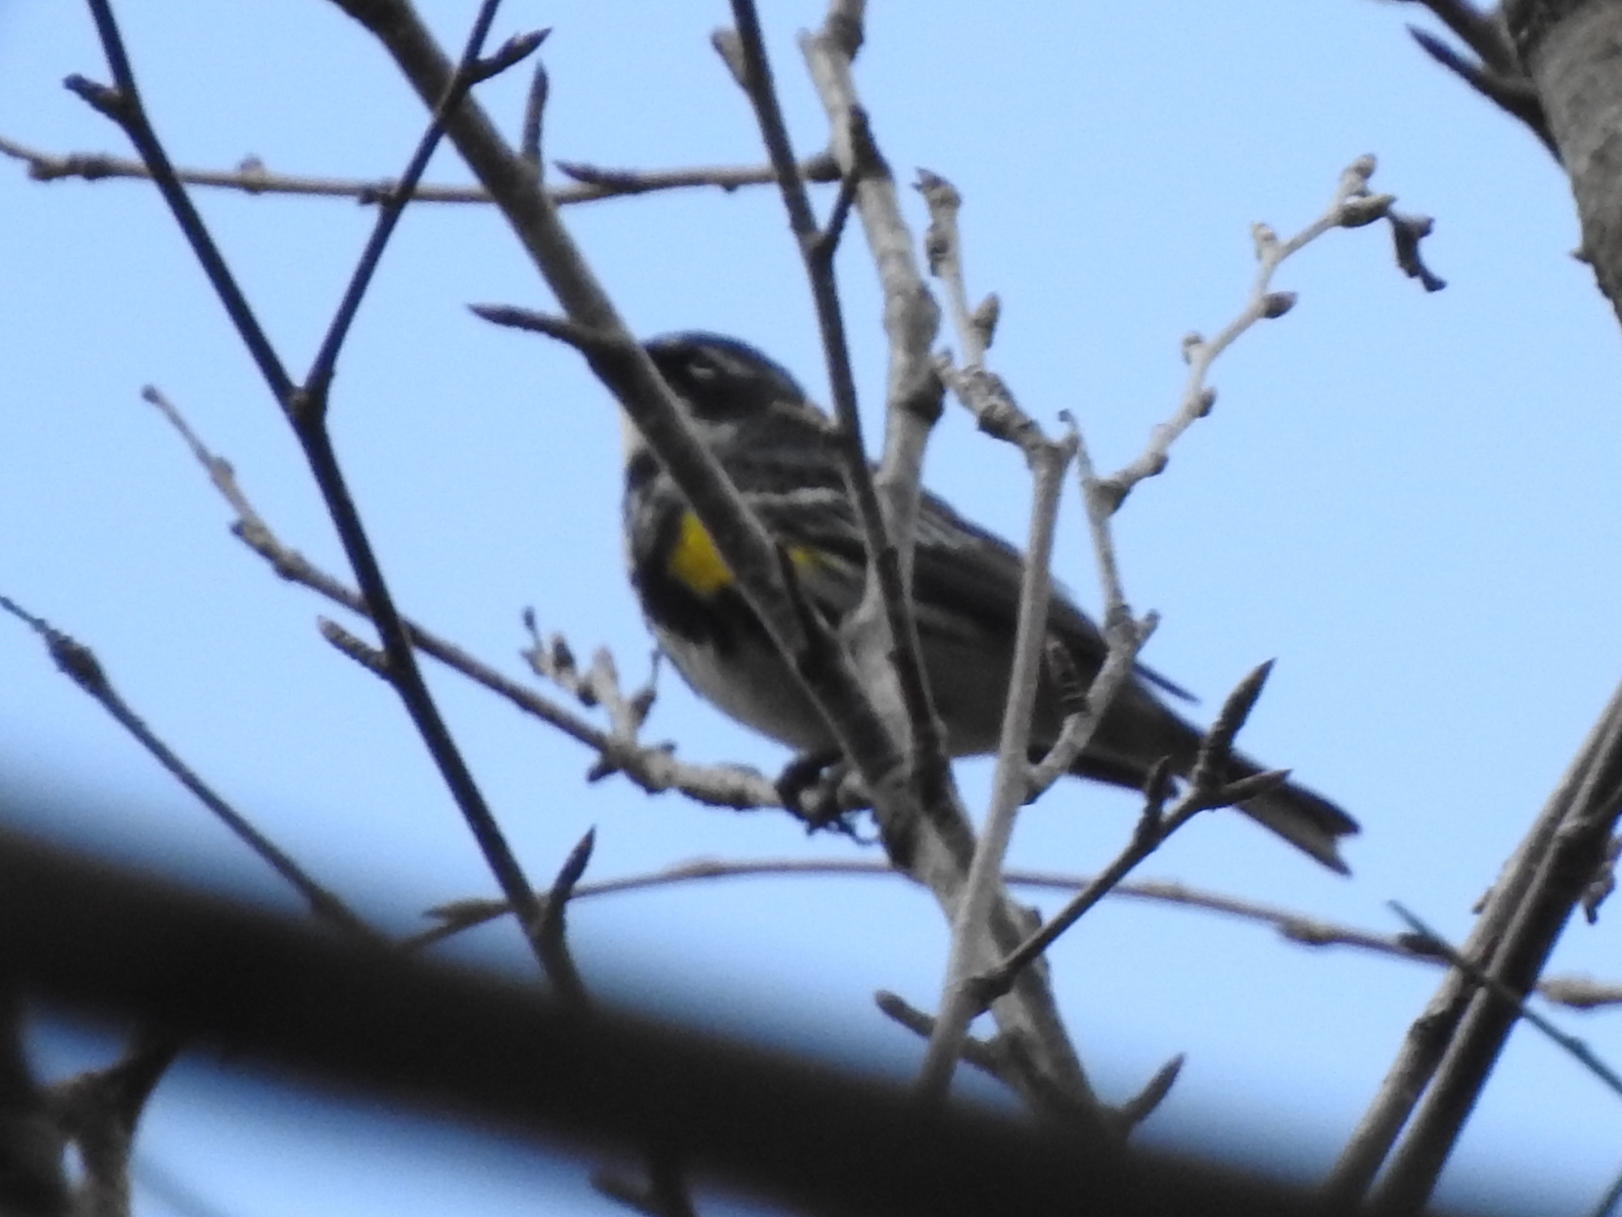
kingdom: Animalia
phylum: Chordata
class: Aves
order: Passeriformes
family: Parulidae
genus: Setophaga
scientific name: Setophaga coronata
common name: Myrtle warbler
